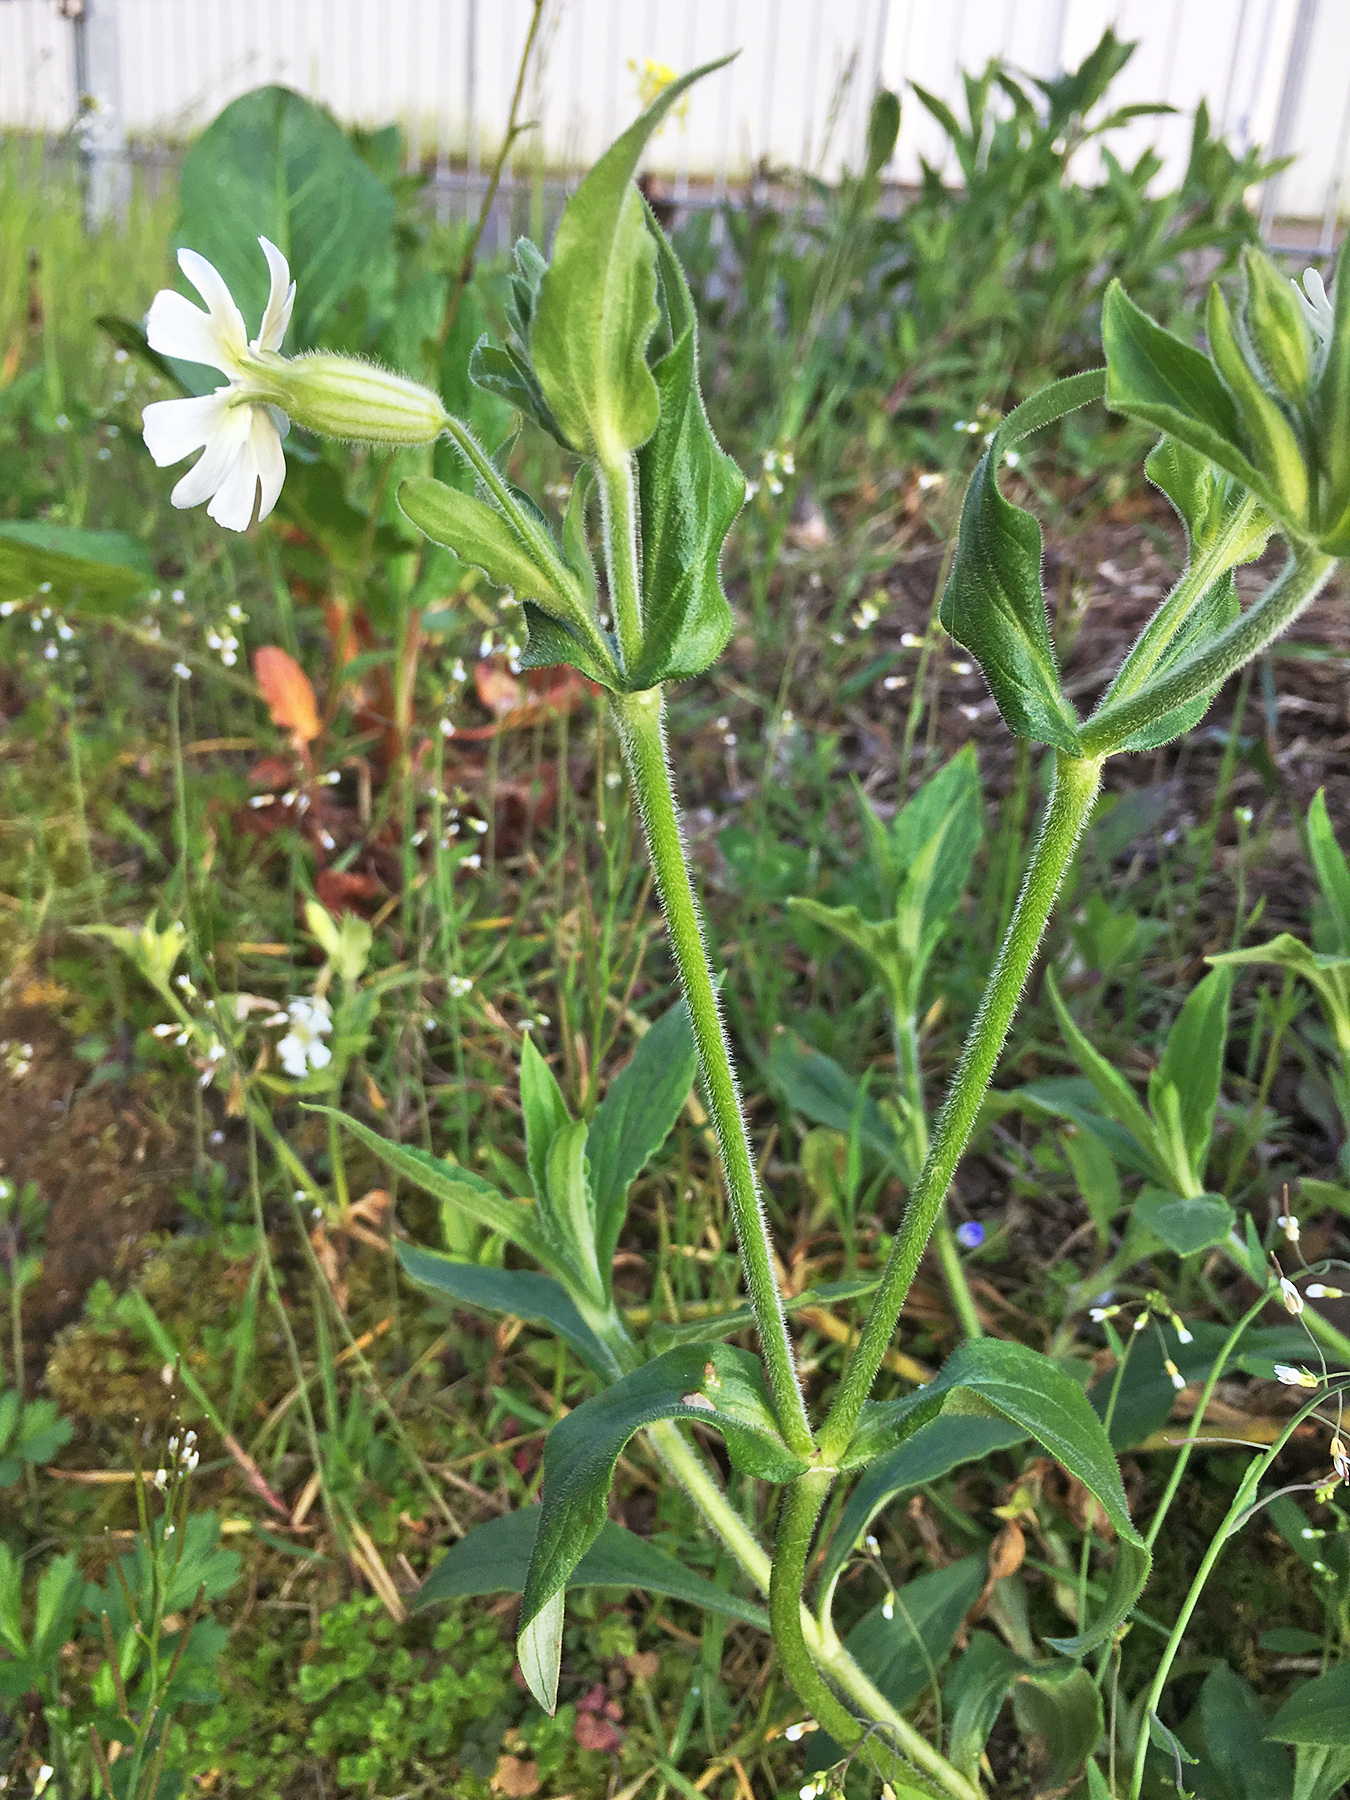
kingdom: Plantae
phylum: Tracheophyta
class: Magnoliopsida
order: Caryophyllales
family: Caryophyllaceae
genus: Silene
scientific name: Silene latifolia
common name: White campion
